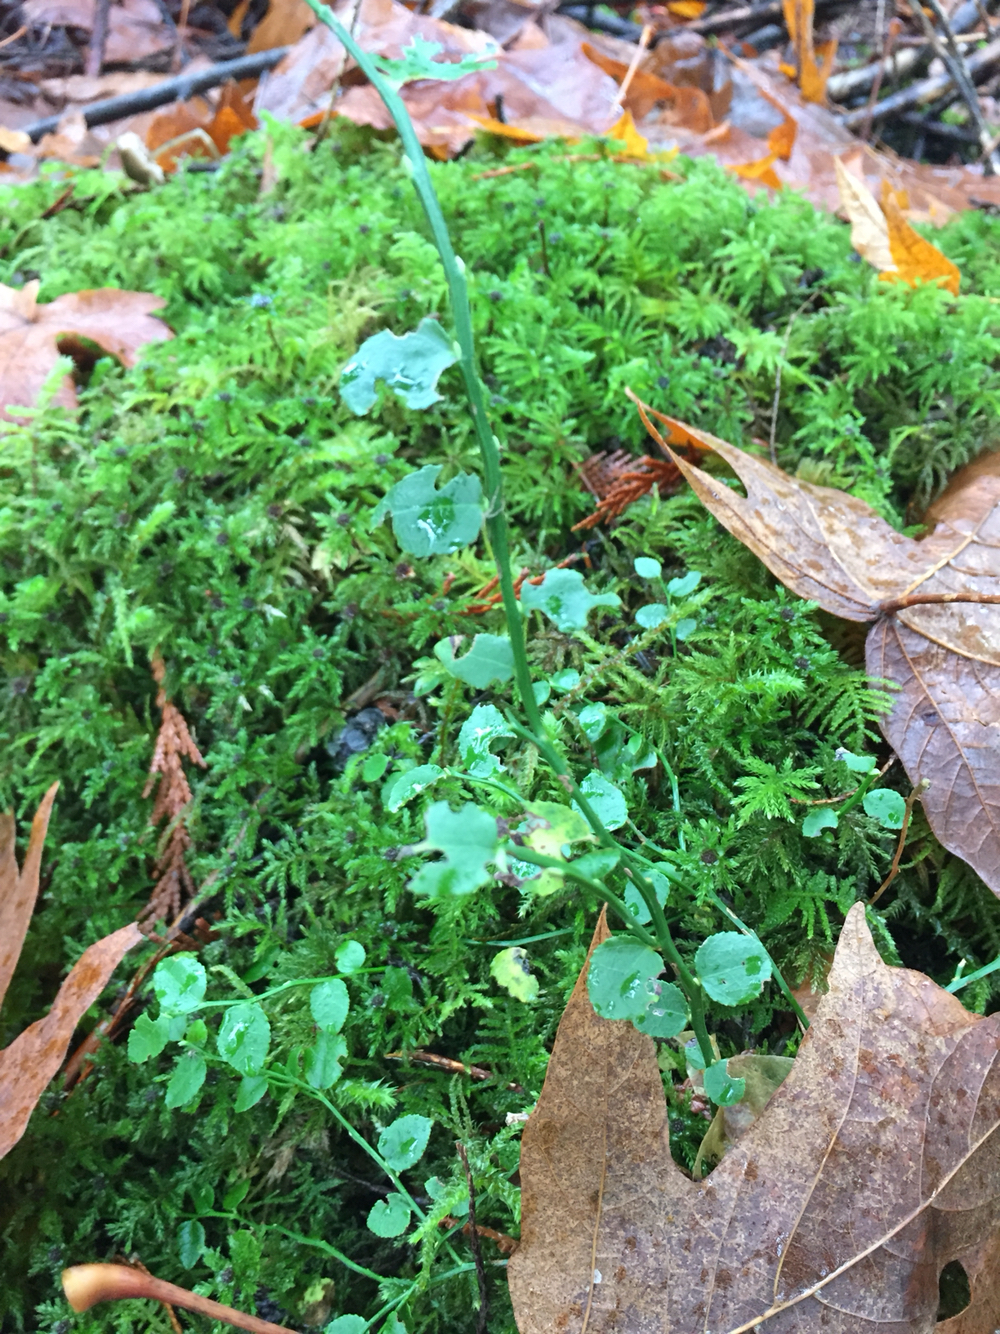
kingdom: Plantae
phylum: Tracheophyta
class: Magnoliopsida
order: Ericales
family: Ericaceae
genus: Vaccinium
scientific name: Vaccinium parvifolium
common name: Red-huckleberry
